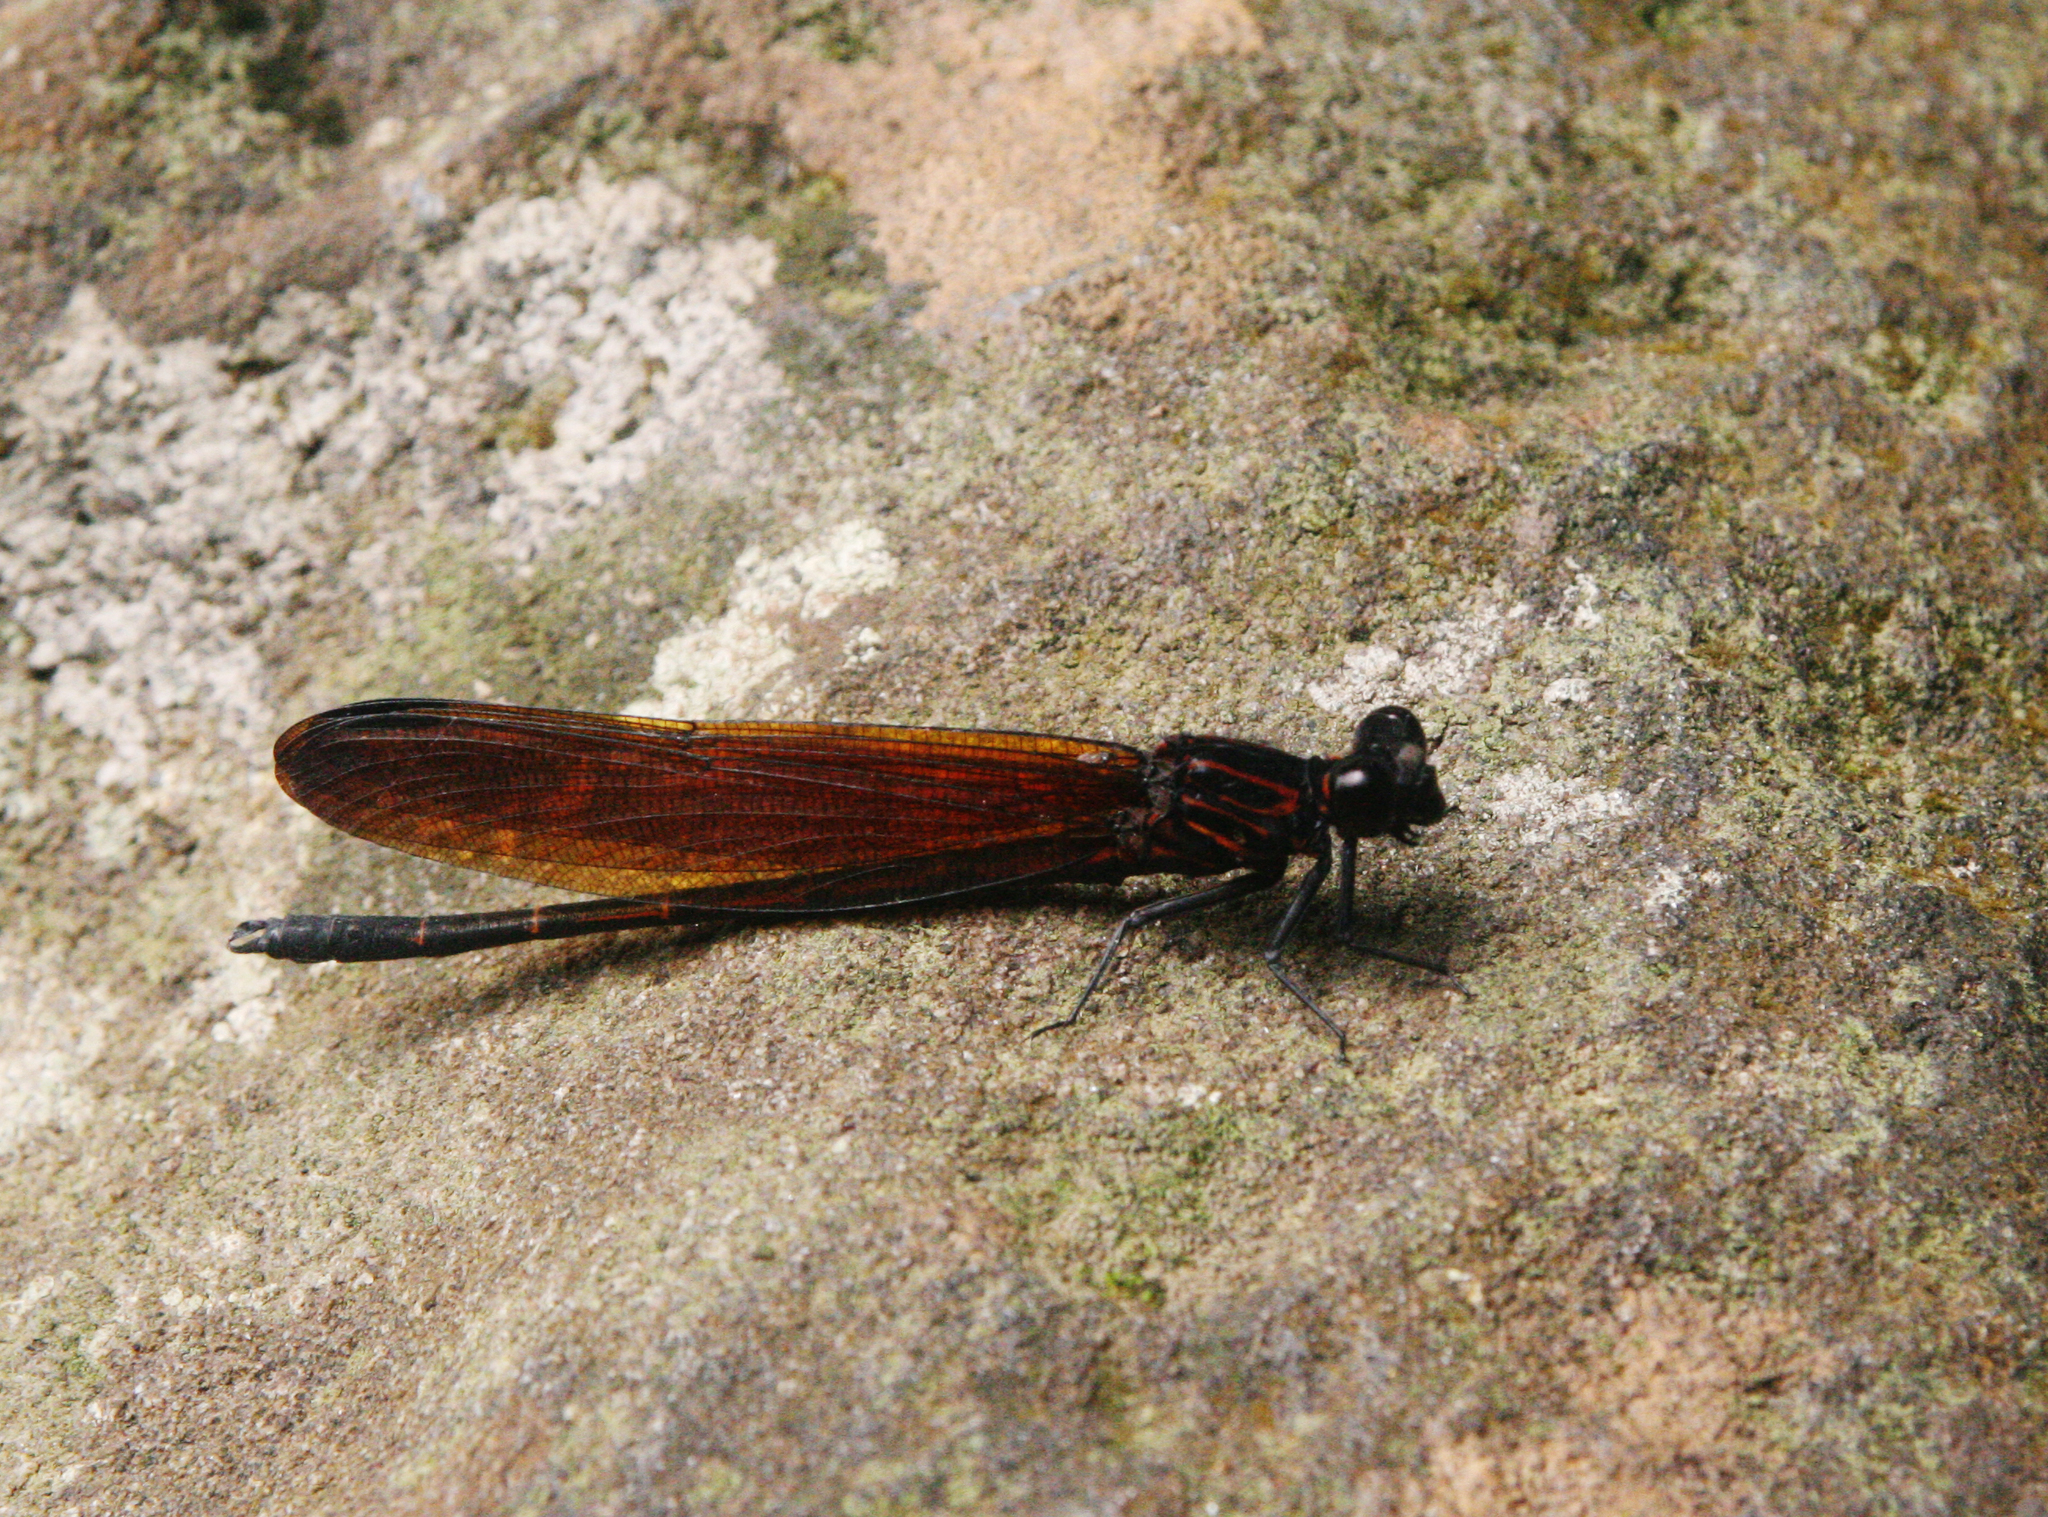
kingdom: Animalia
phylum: Arthropoda
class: Insecta
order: Odonata
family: Euphaeidae
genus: Dysphaea
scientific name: Dysphaea gloriosa
